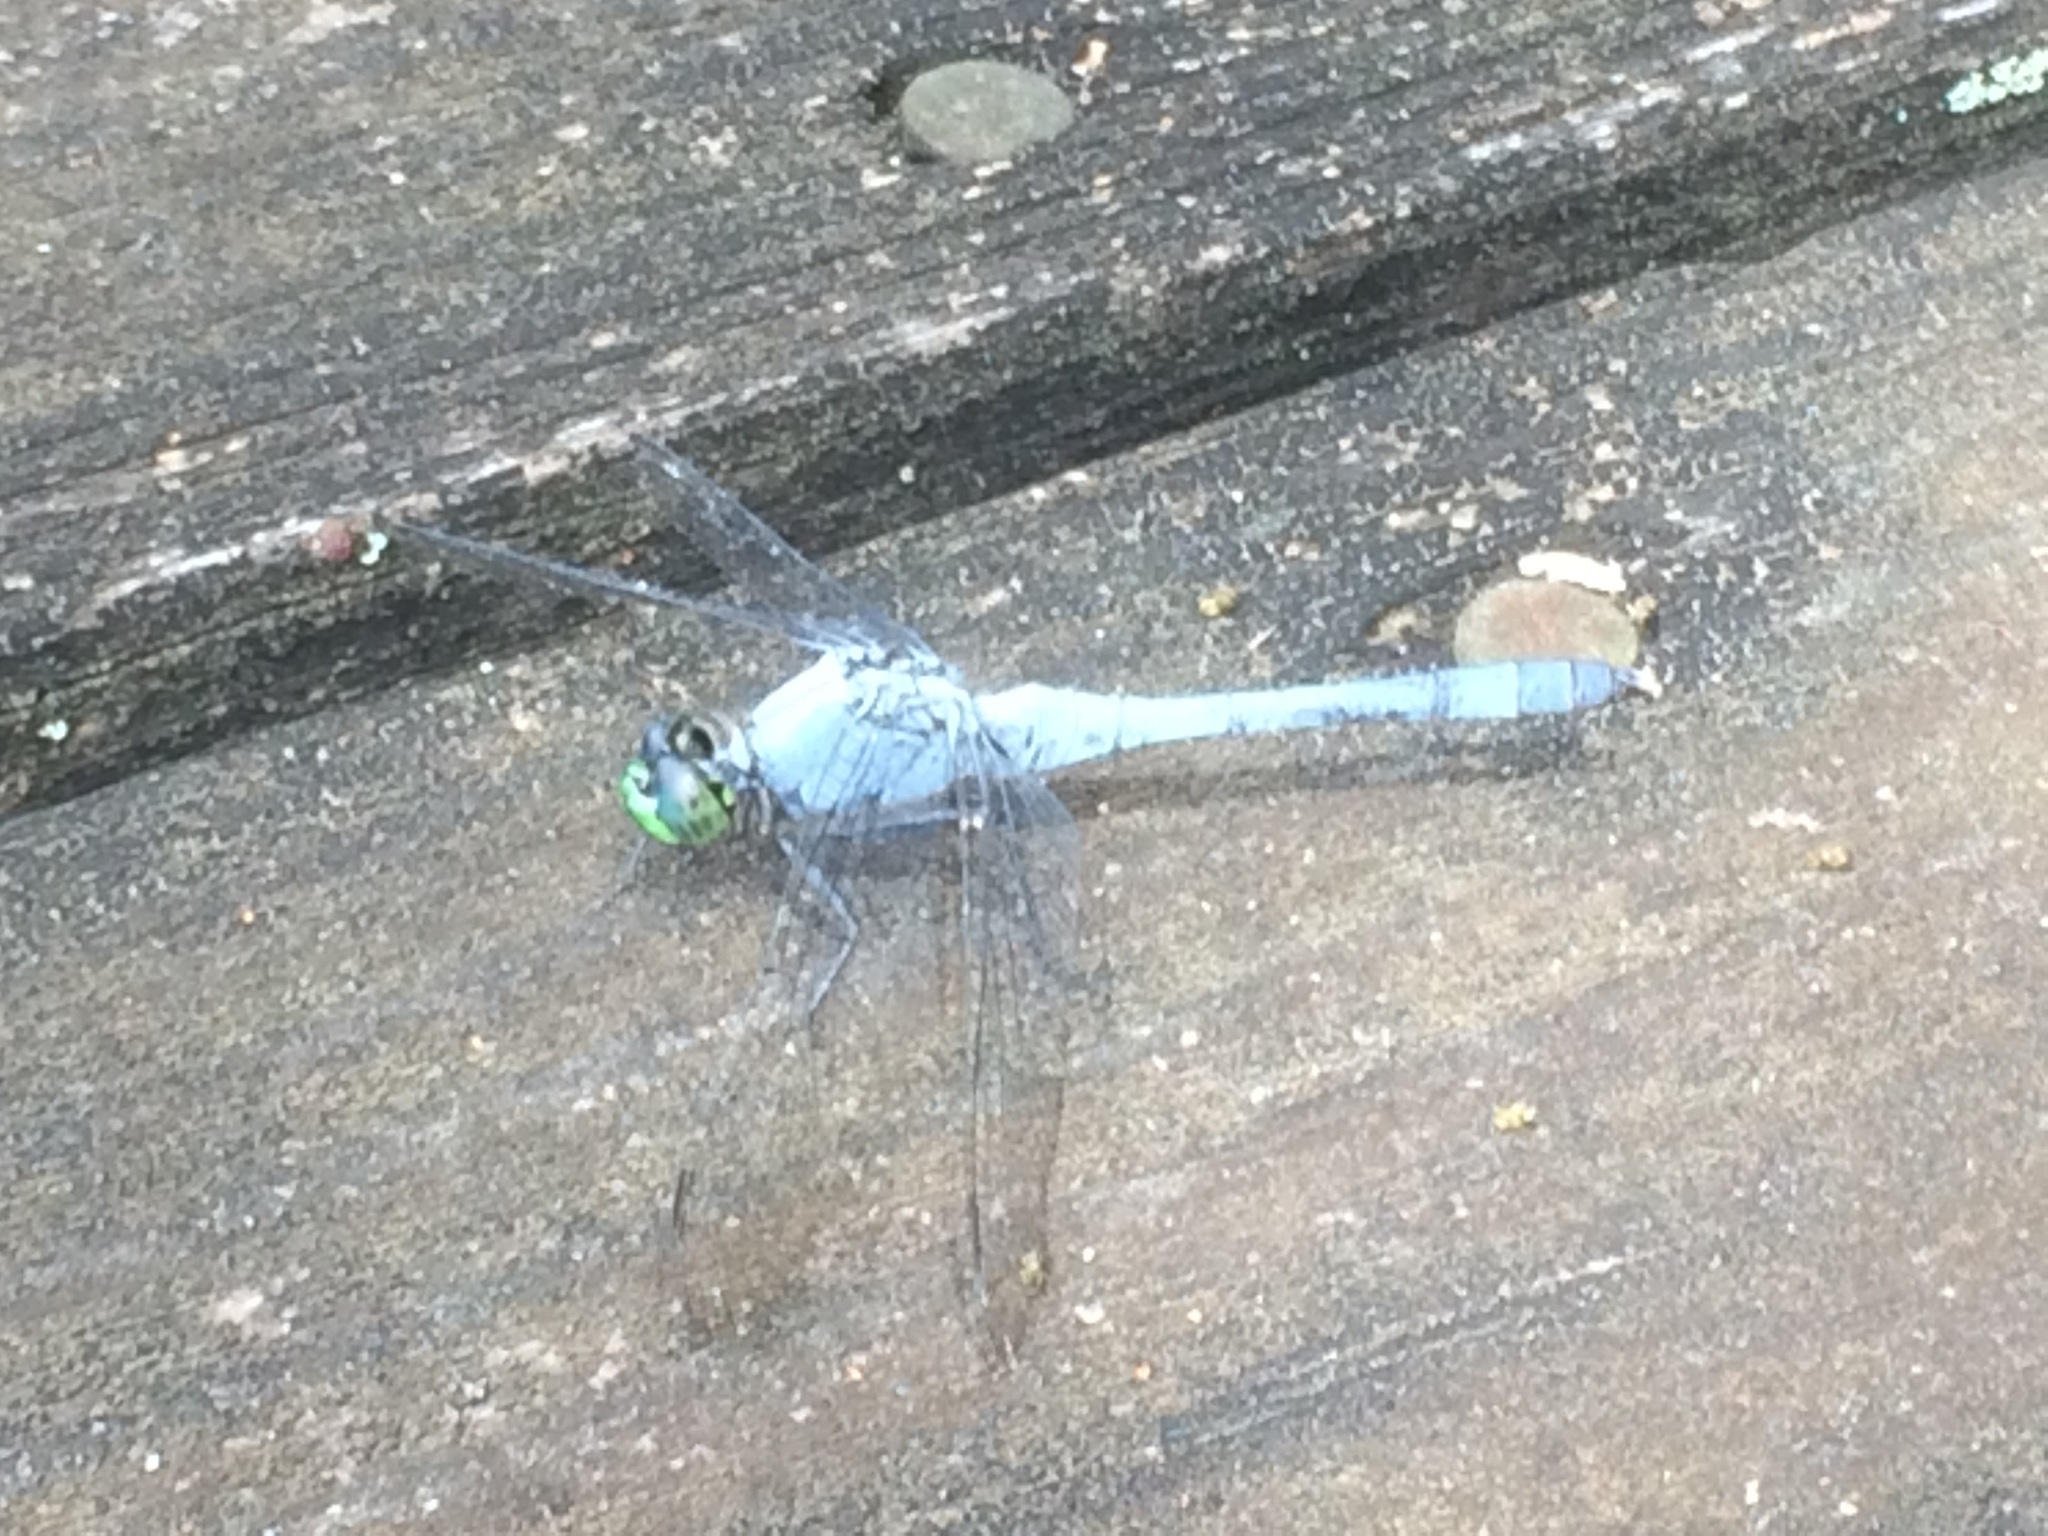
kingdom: Animalia
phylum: Arthropoda
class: Insecta
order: Odonata
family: Libellulidae
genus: Erythemis
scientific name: Erythemis simplicicollis
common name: Eastern pondhawk
